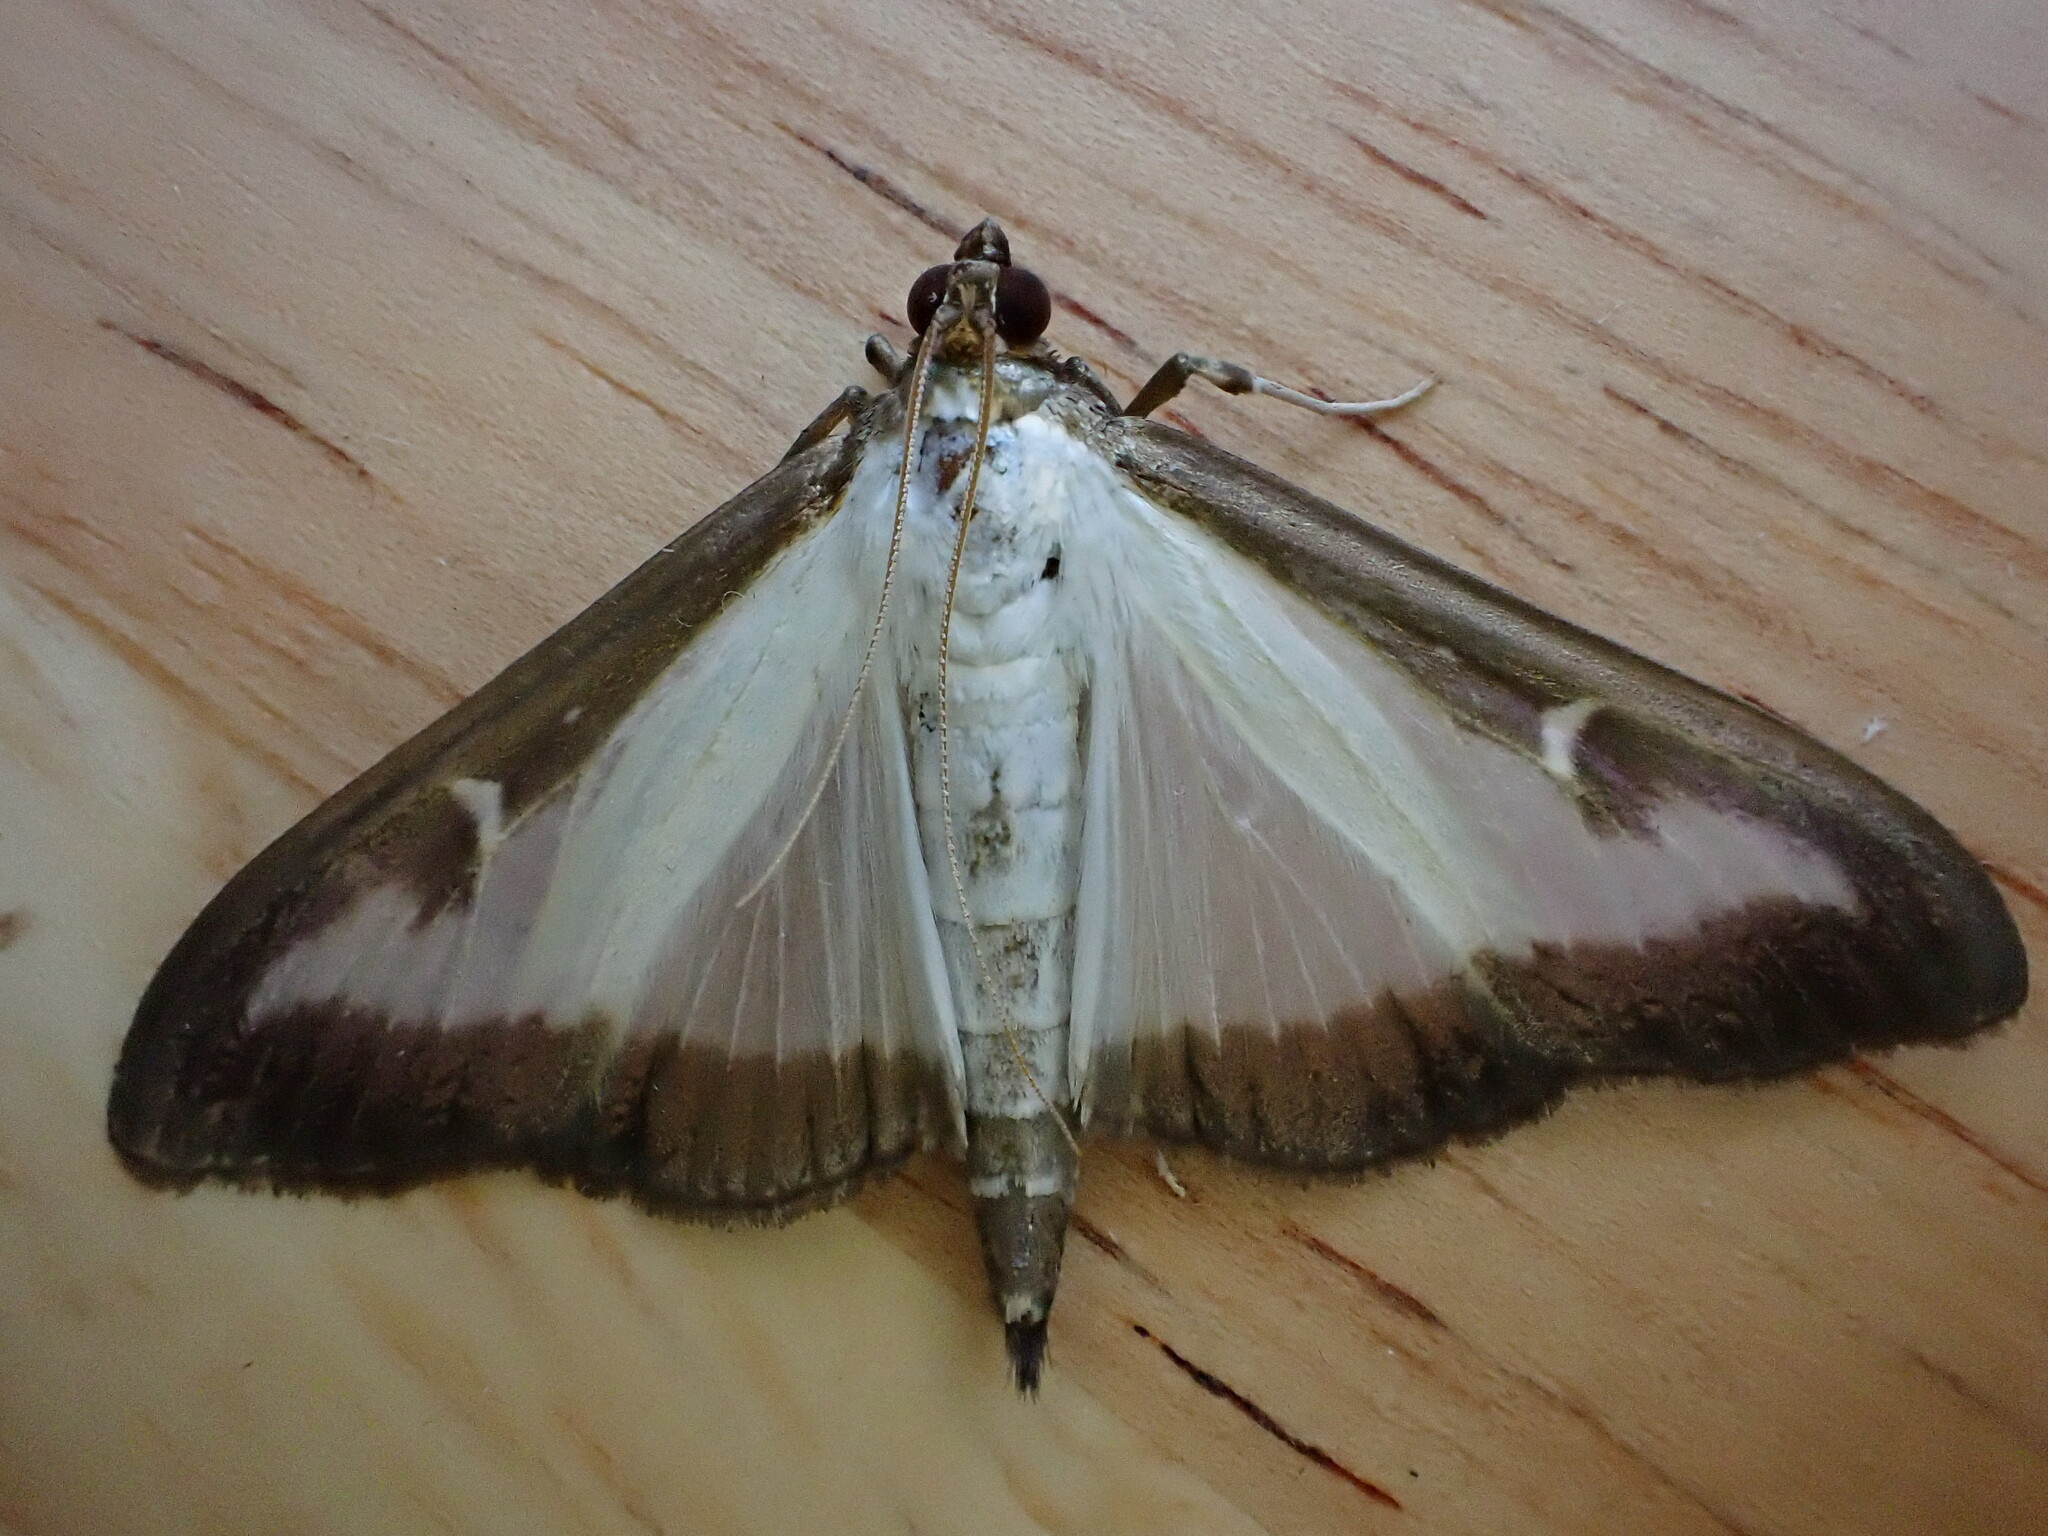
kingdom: Animalia
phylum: Arthropoda
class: Insecta
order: Lepidoptera
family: Crambidae
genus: Cydalima
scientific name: Cydalima perspectalis
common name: Box tree moth
